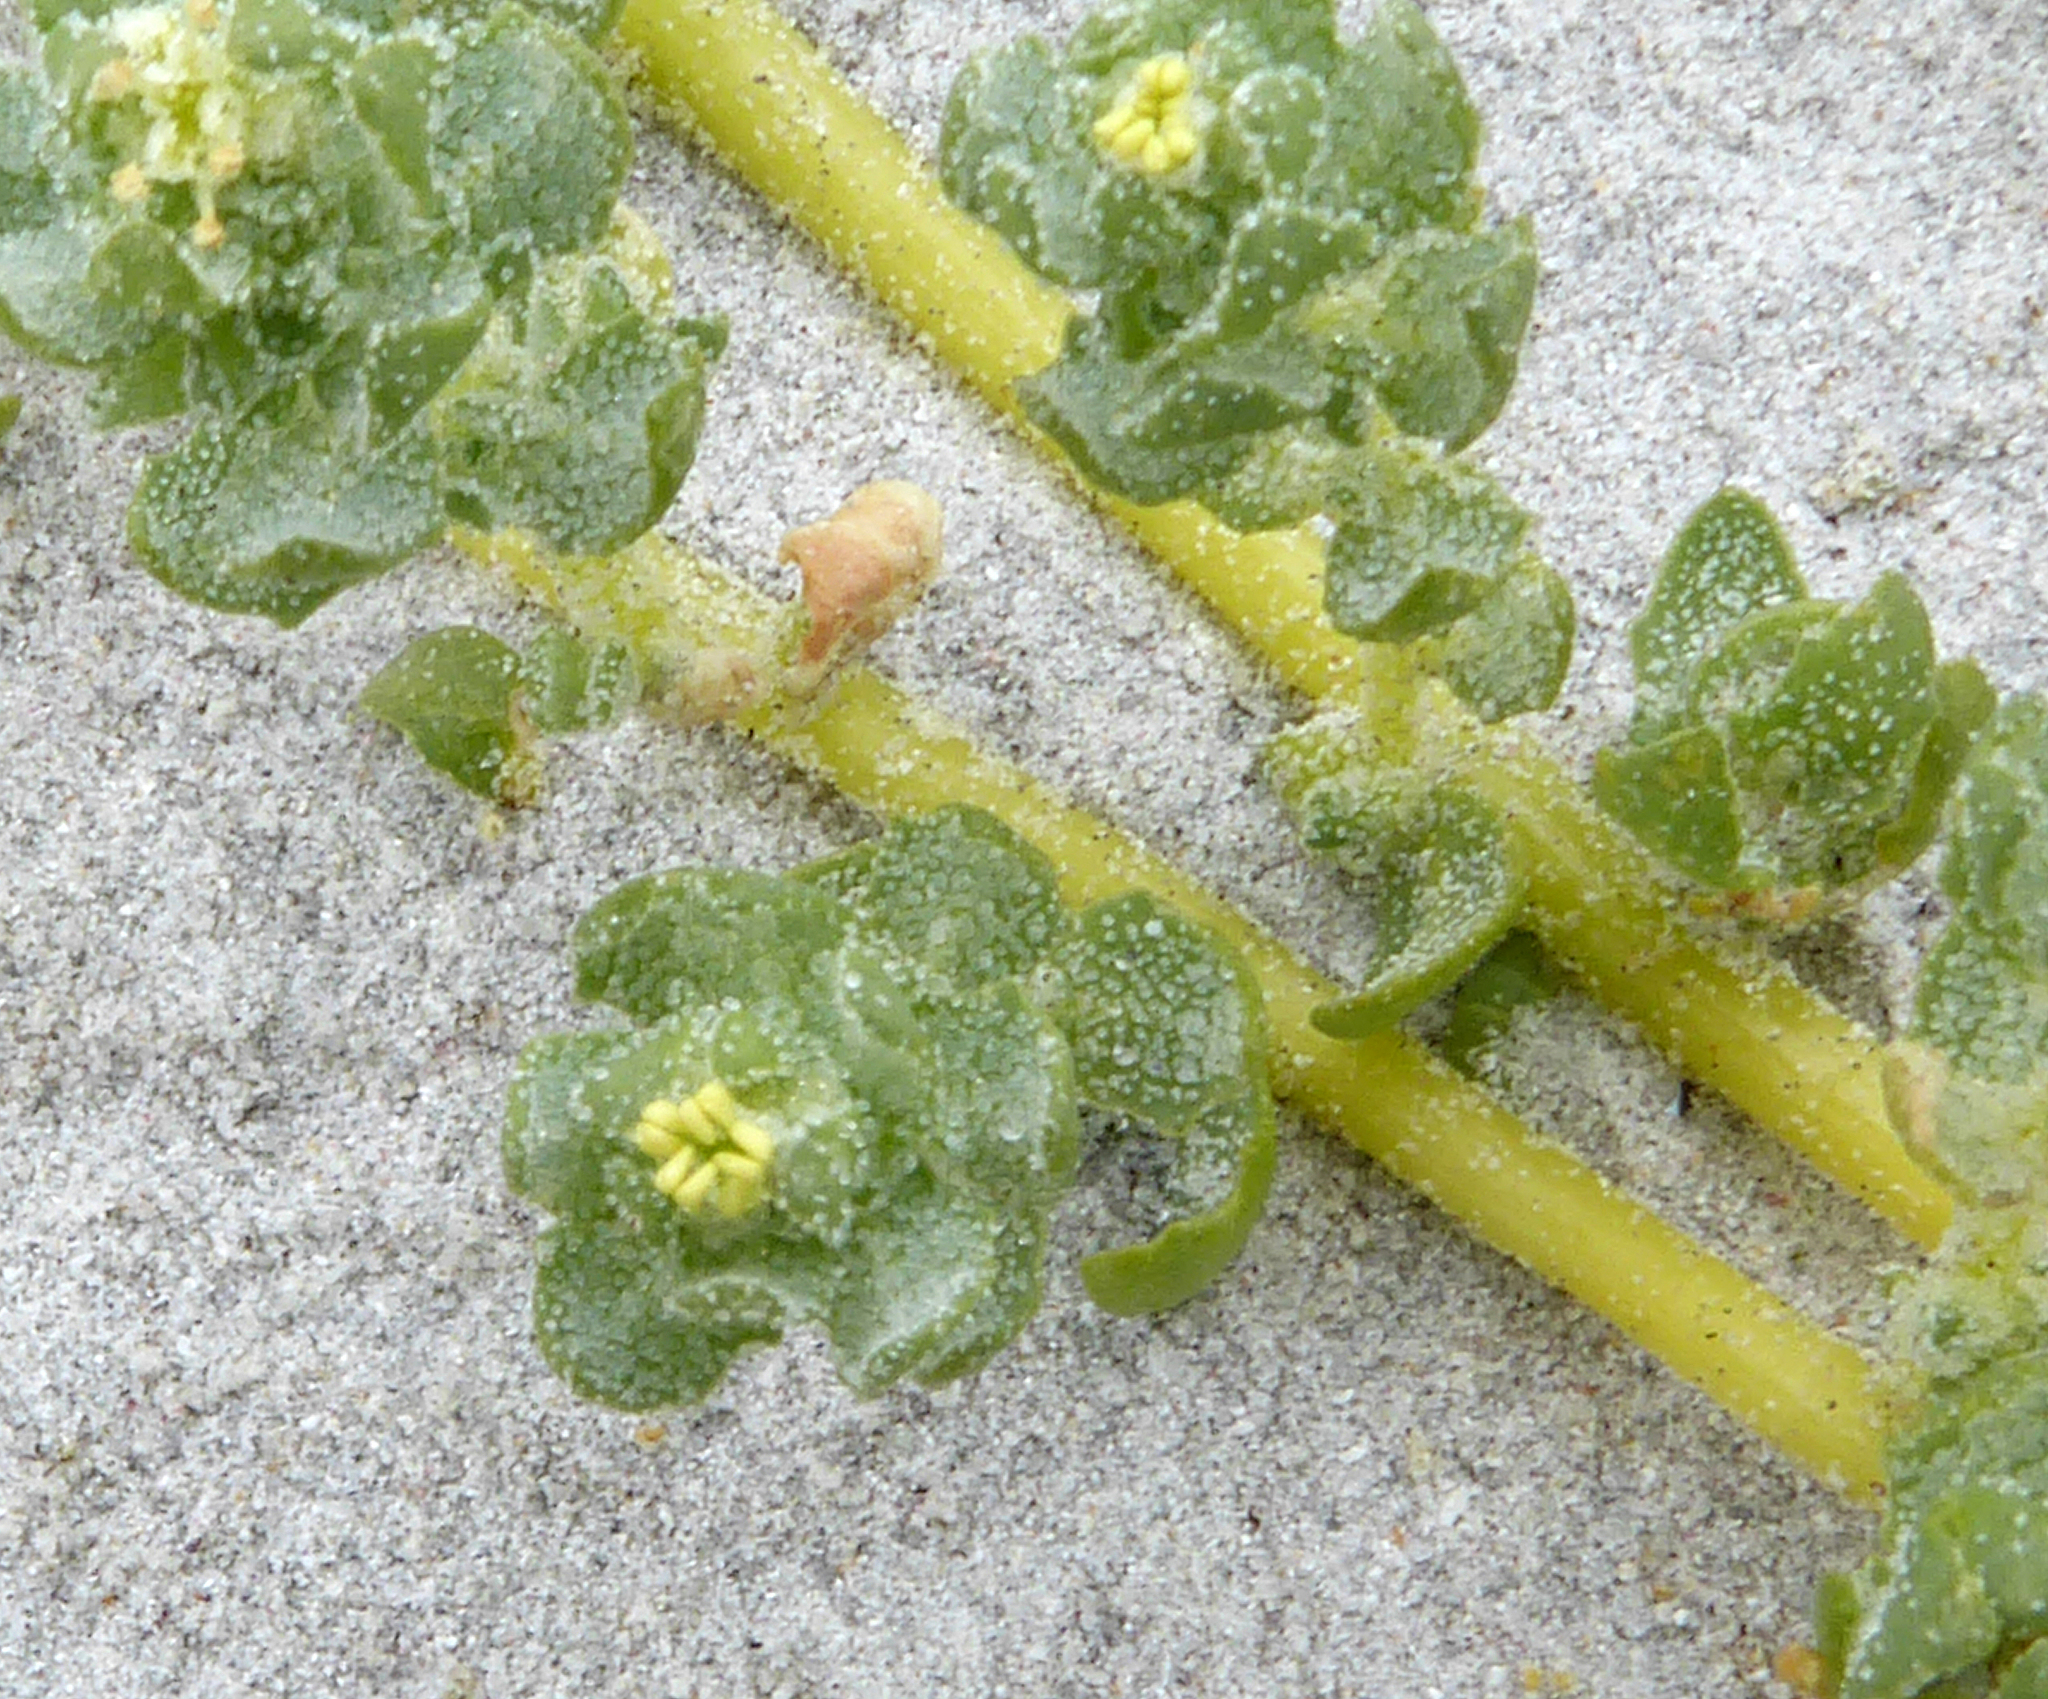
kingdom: Plantae
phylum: Tracheophyta
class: Magnoliopsida
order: Caryophyllales
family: Amaranthaceae
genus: Atriplex
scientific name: Atriplex billardierei
